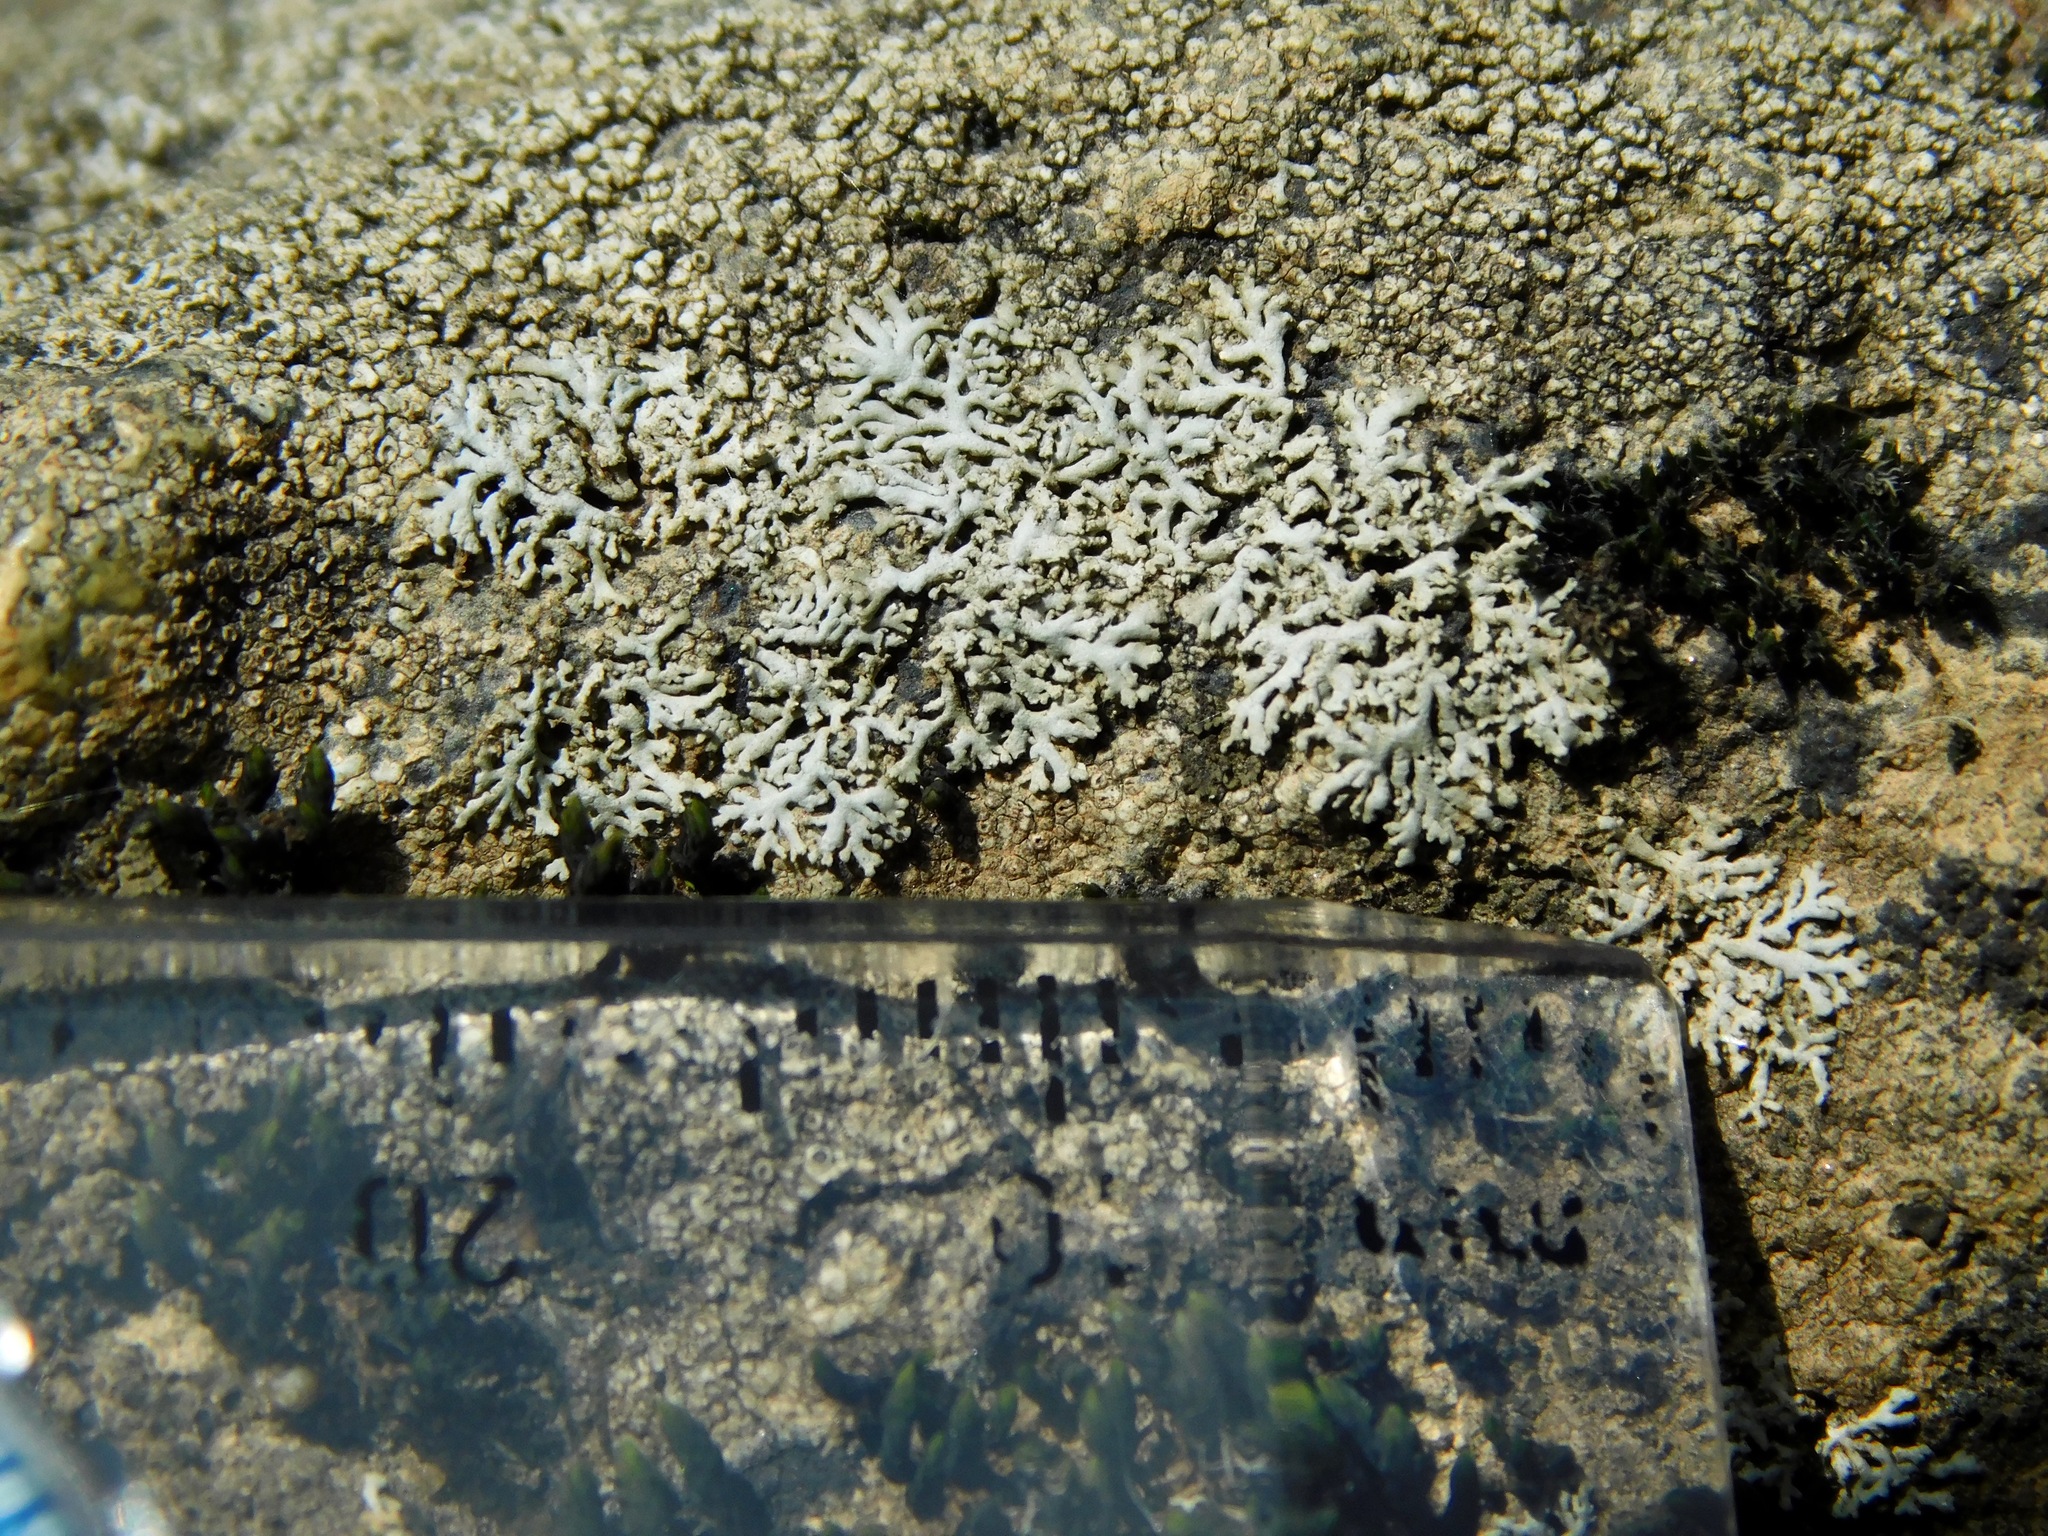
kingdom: Fungi
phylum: Ascomycota
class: Lecanoromycetes
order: Caliciales
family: Physciaceae
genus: Physcia
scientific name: Physcia subtilis
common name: Slender rosette lichen
